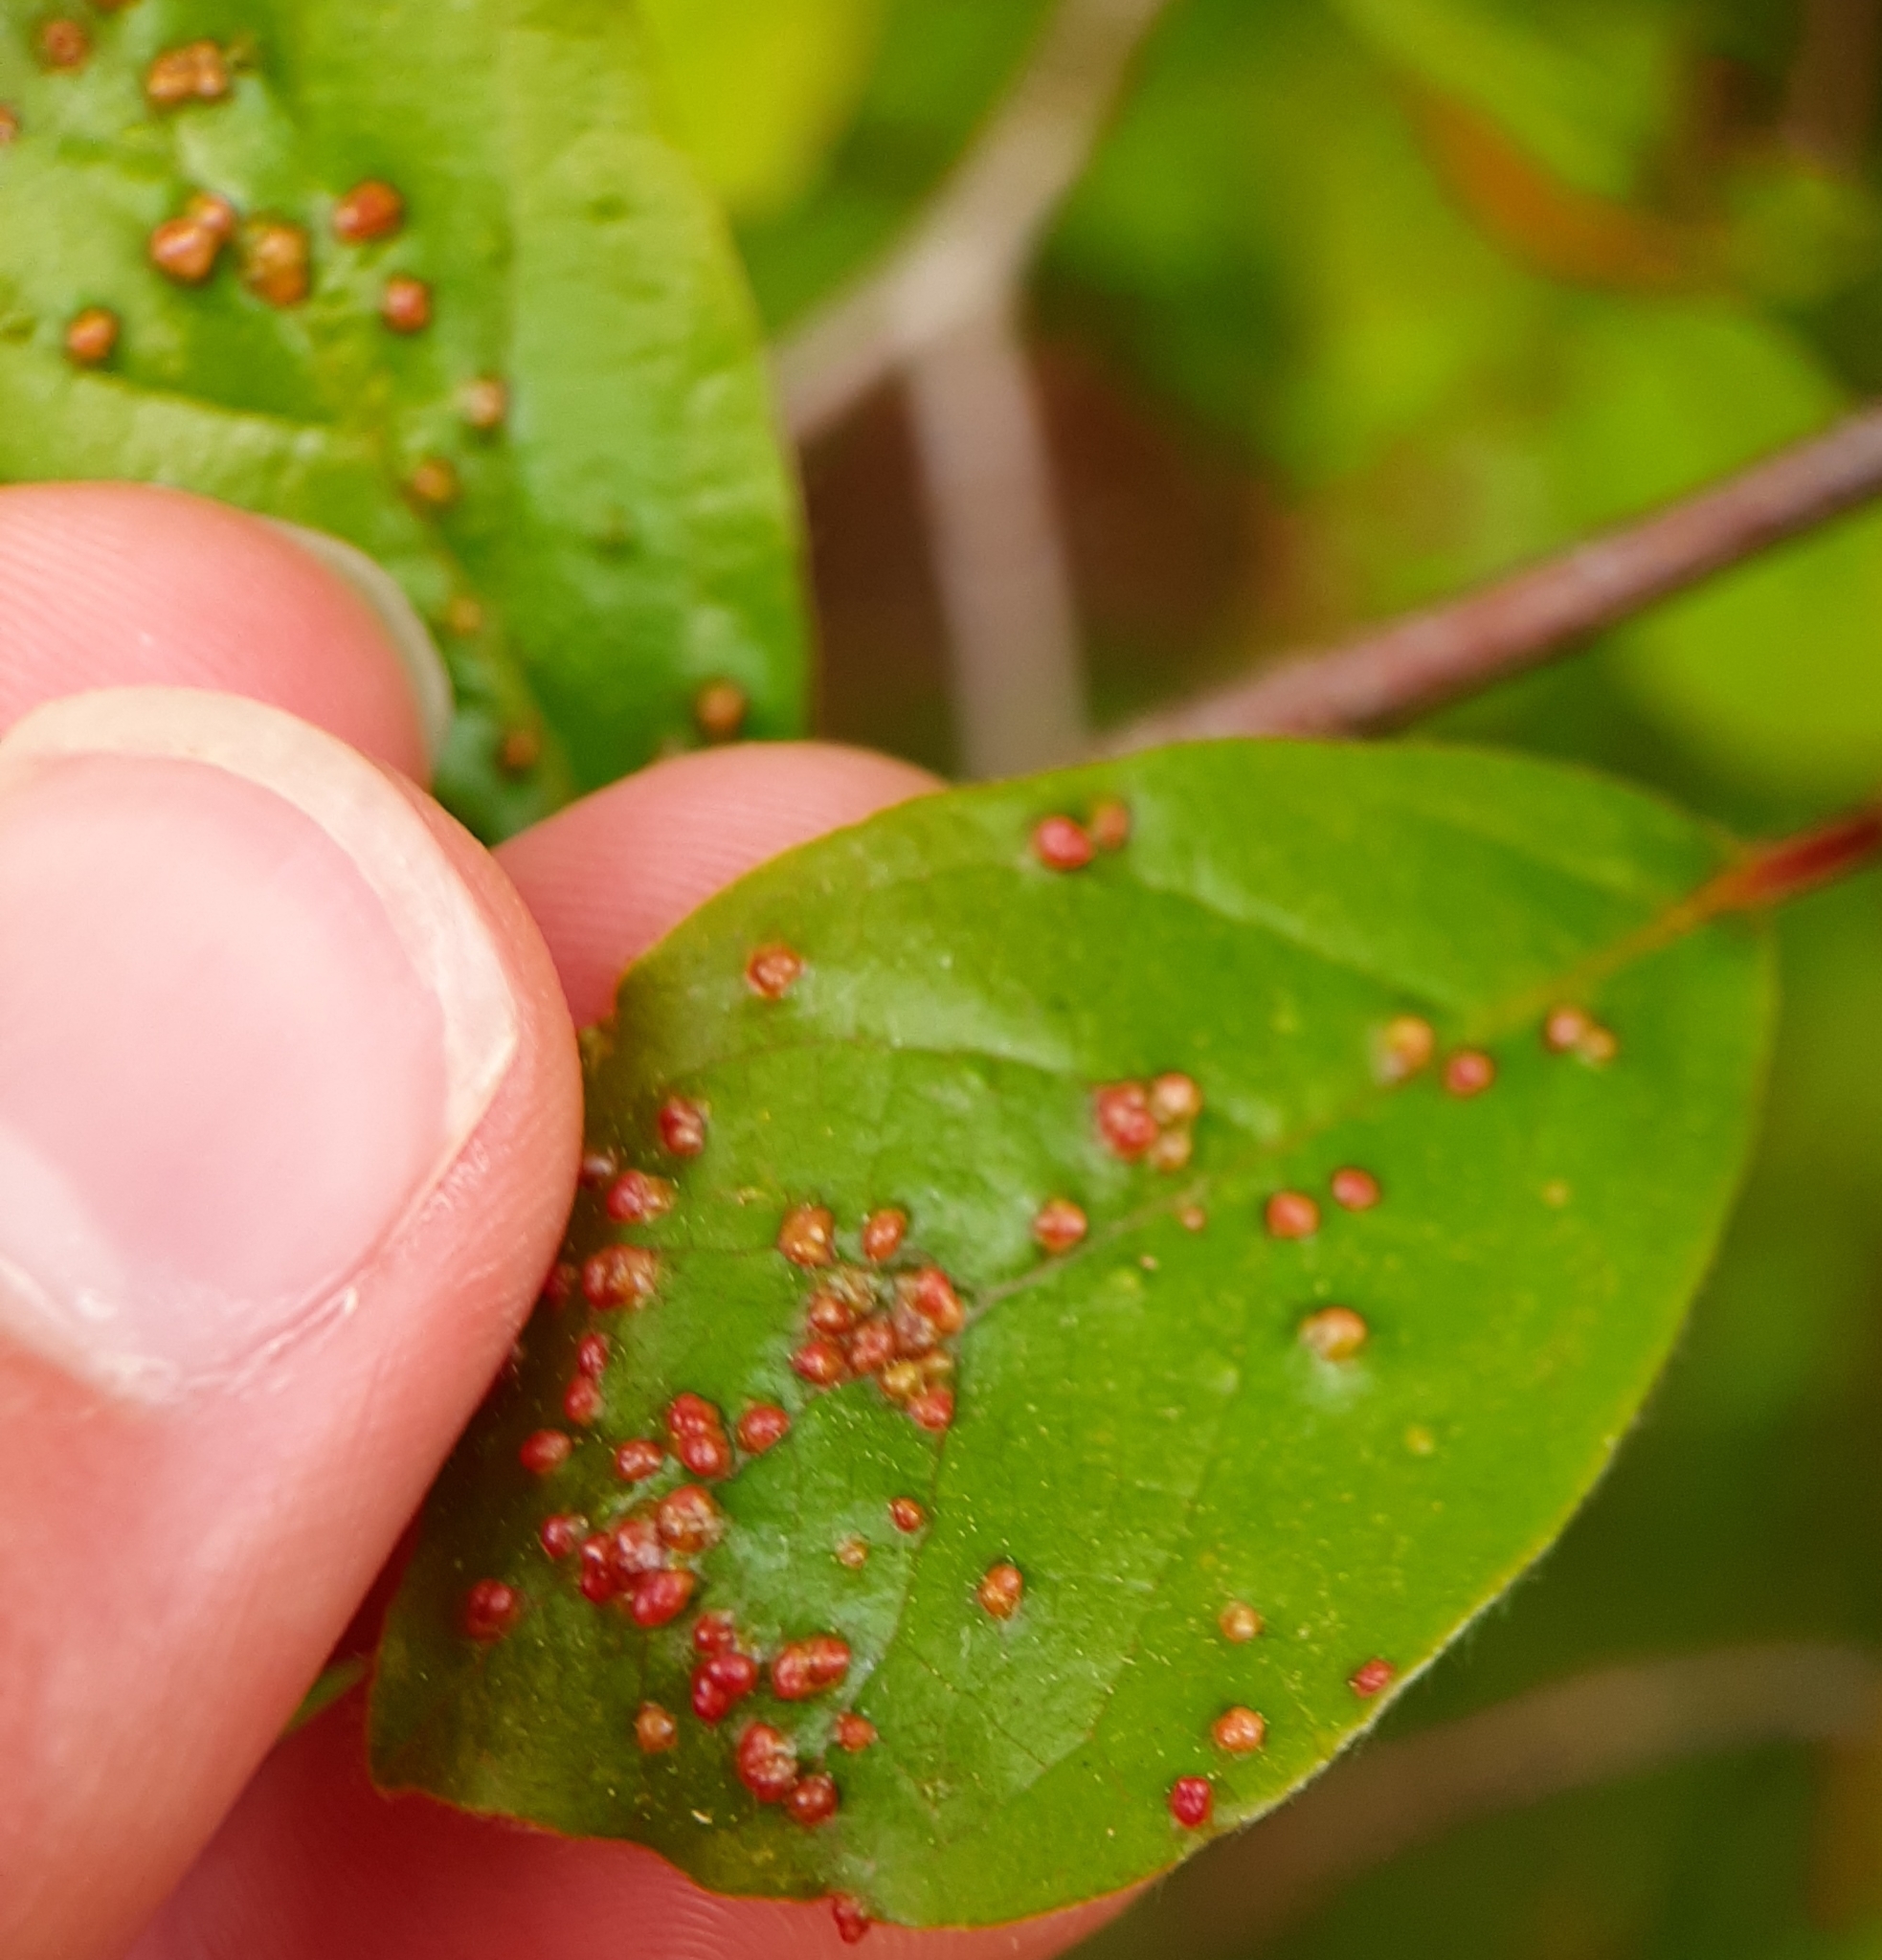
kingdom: Animalia
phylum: Arthropoda
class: Arachnida
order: Trombidiformes
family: Eriophyidae
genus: Aceria
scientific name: Aceria
